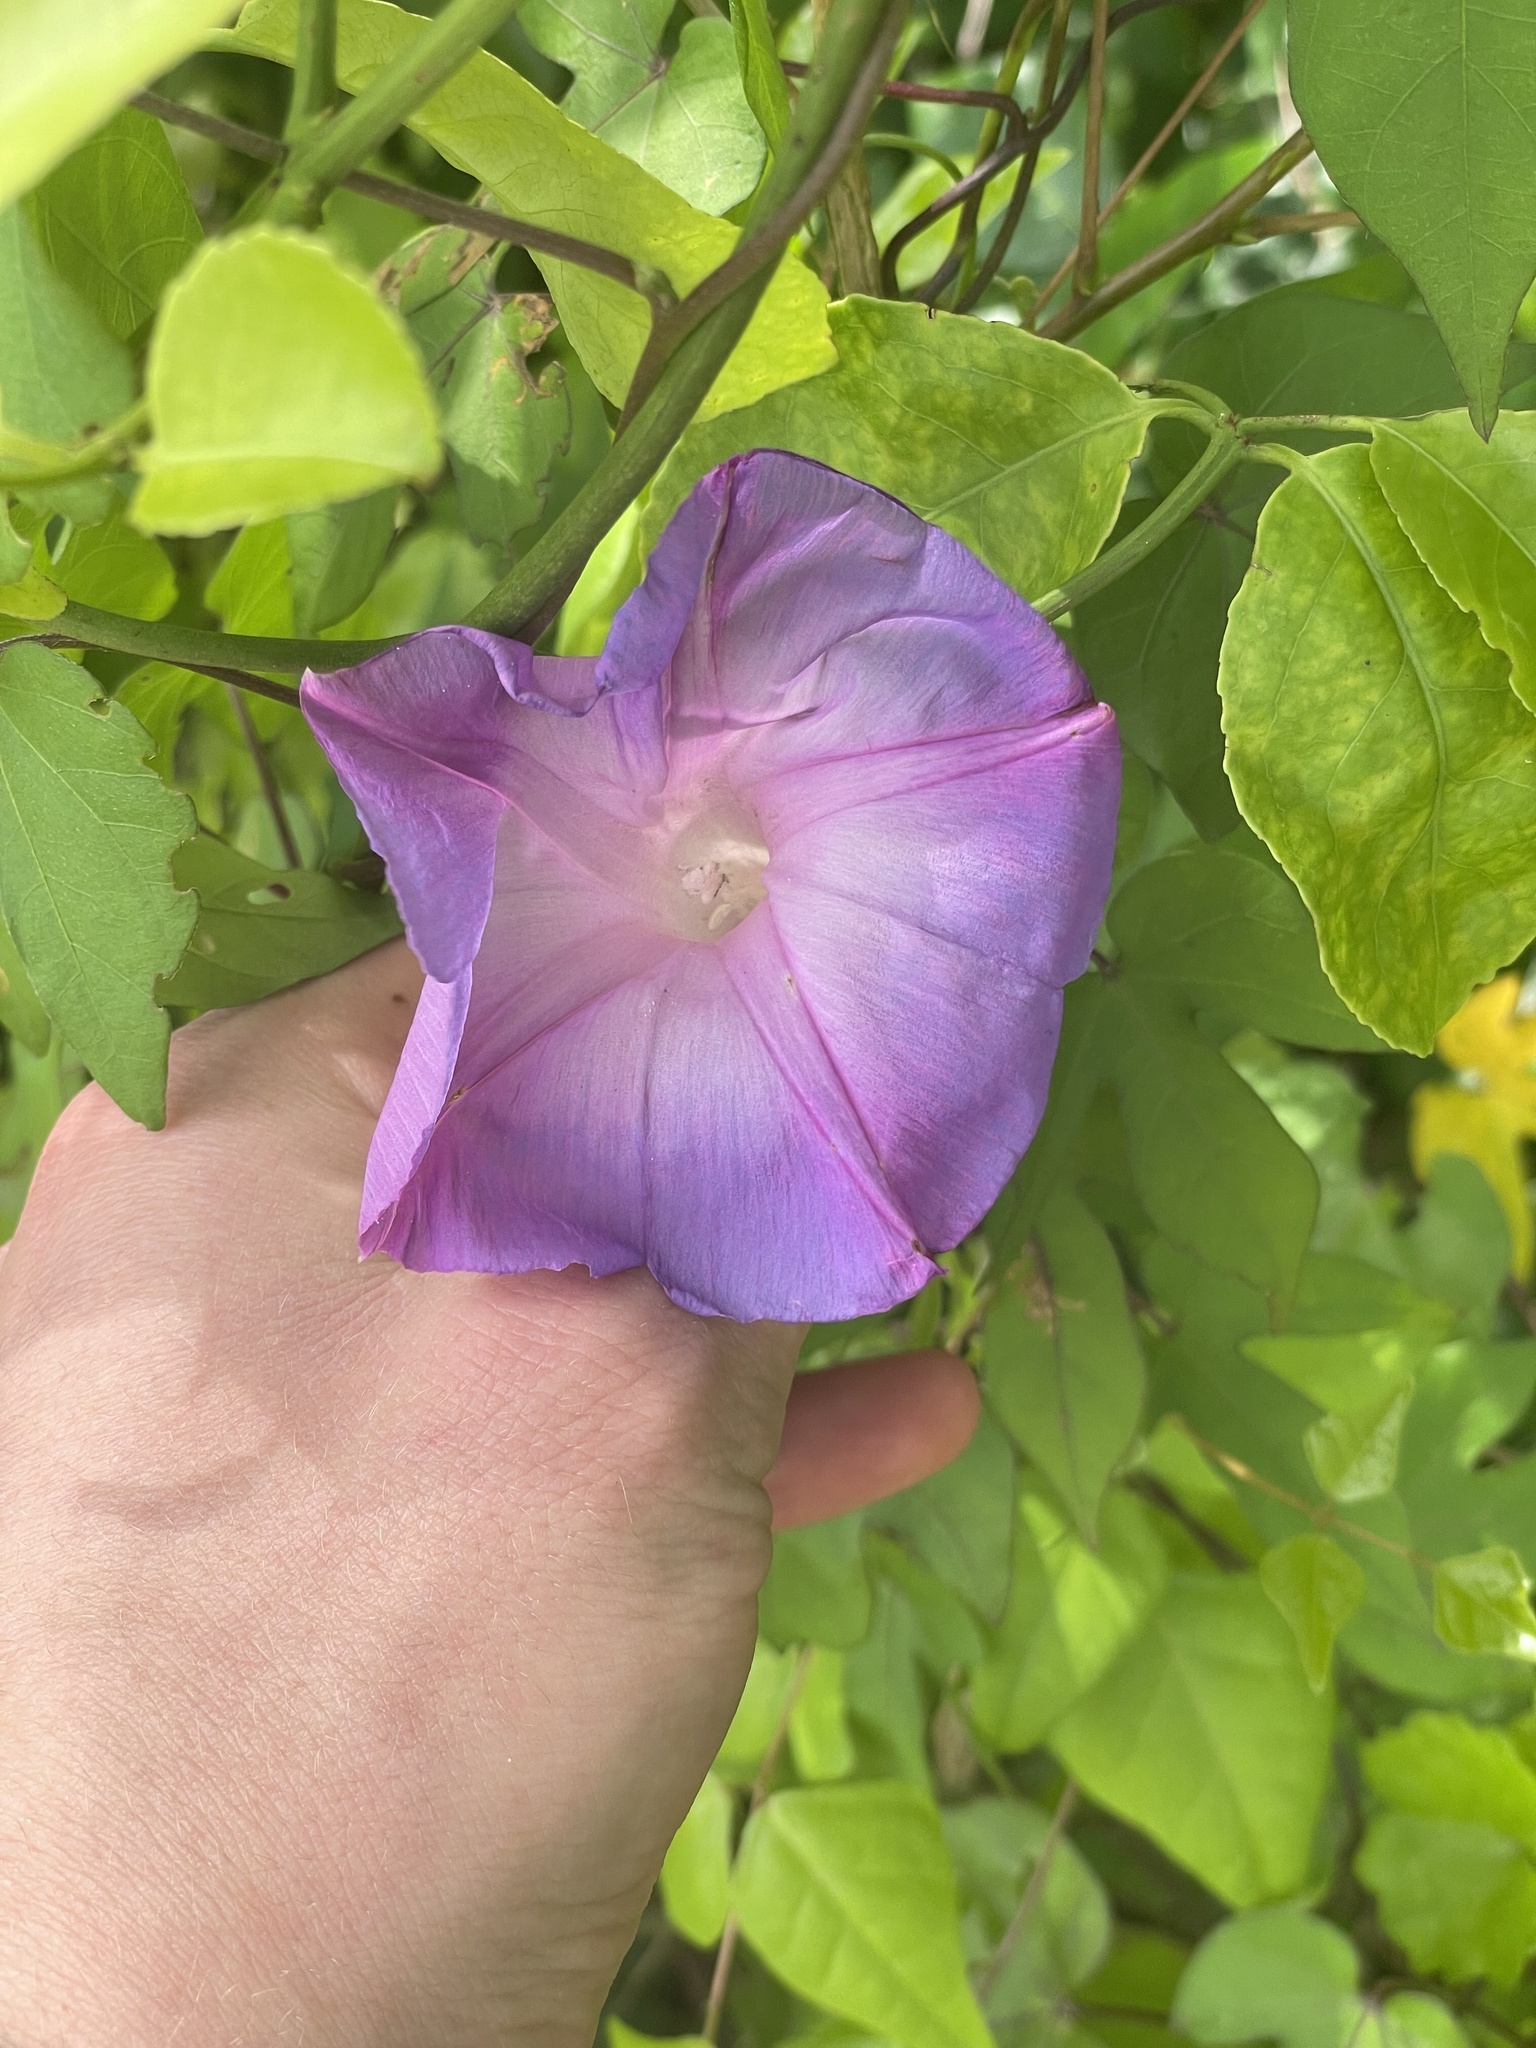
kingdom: Plantae
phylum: Tracheophyta
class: Magnoliopsida
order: Solanales
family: Convolvulaceae
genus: Ipomoea
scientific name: Ipomoea indica
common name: Blue dawnflower
